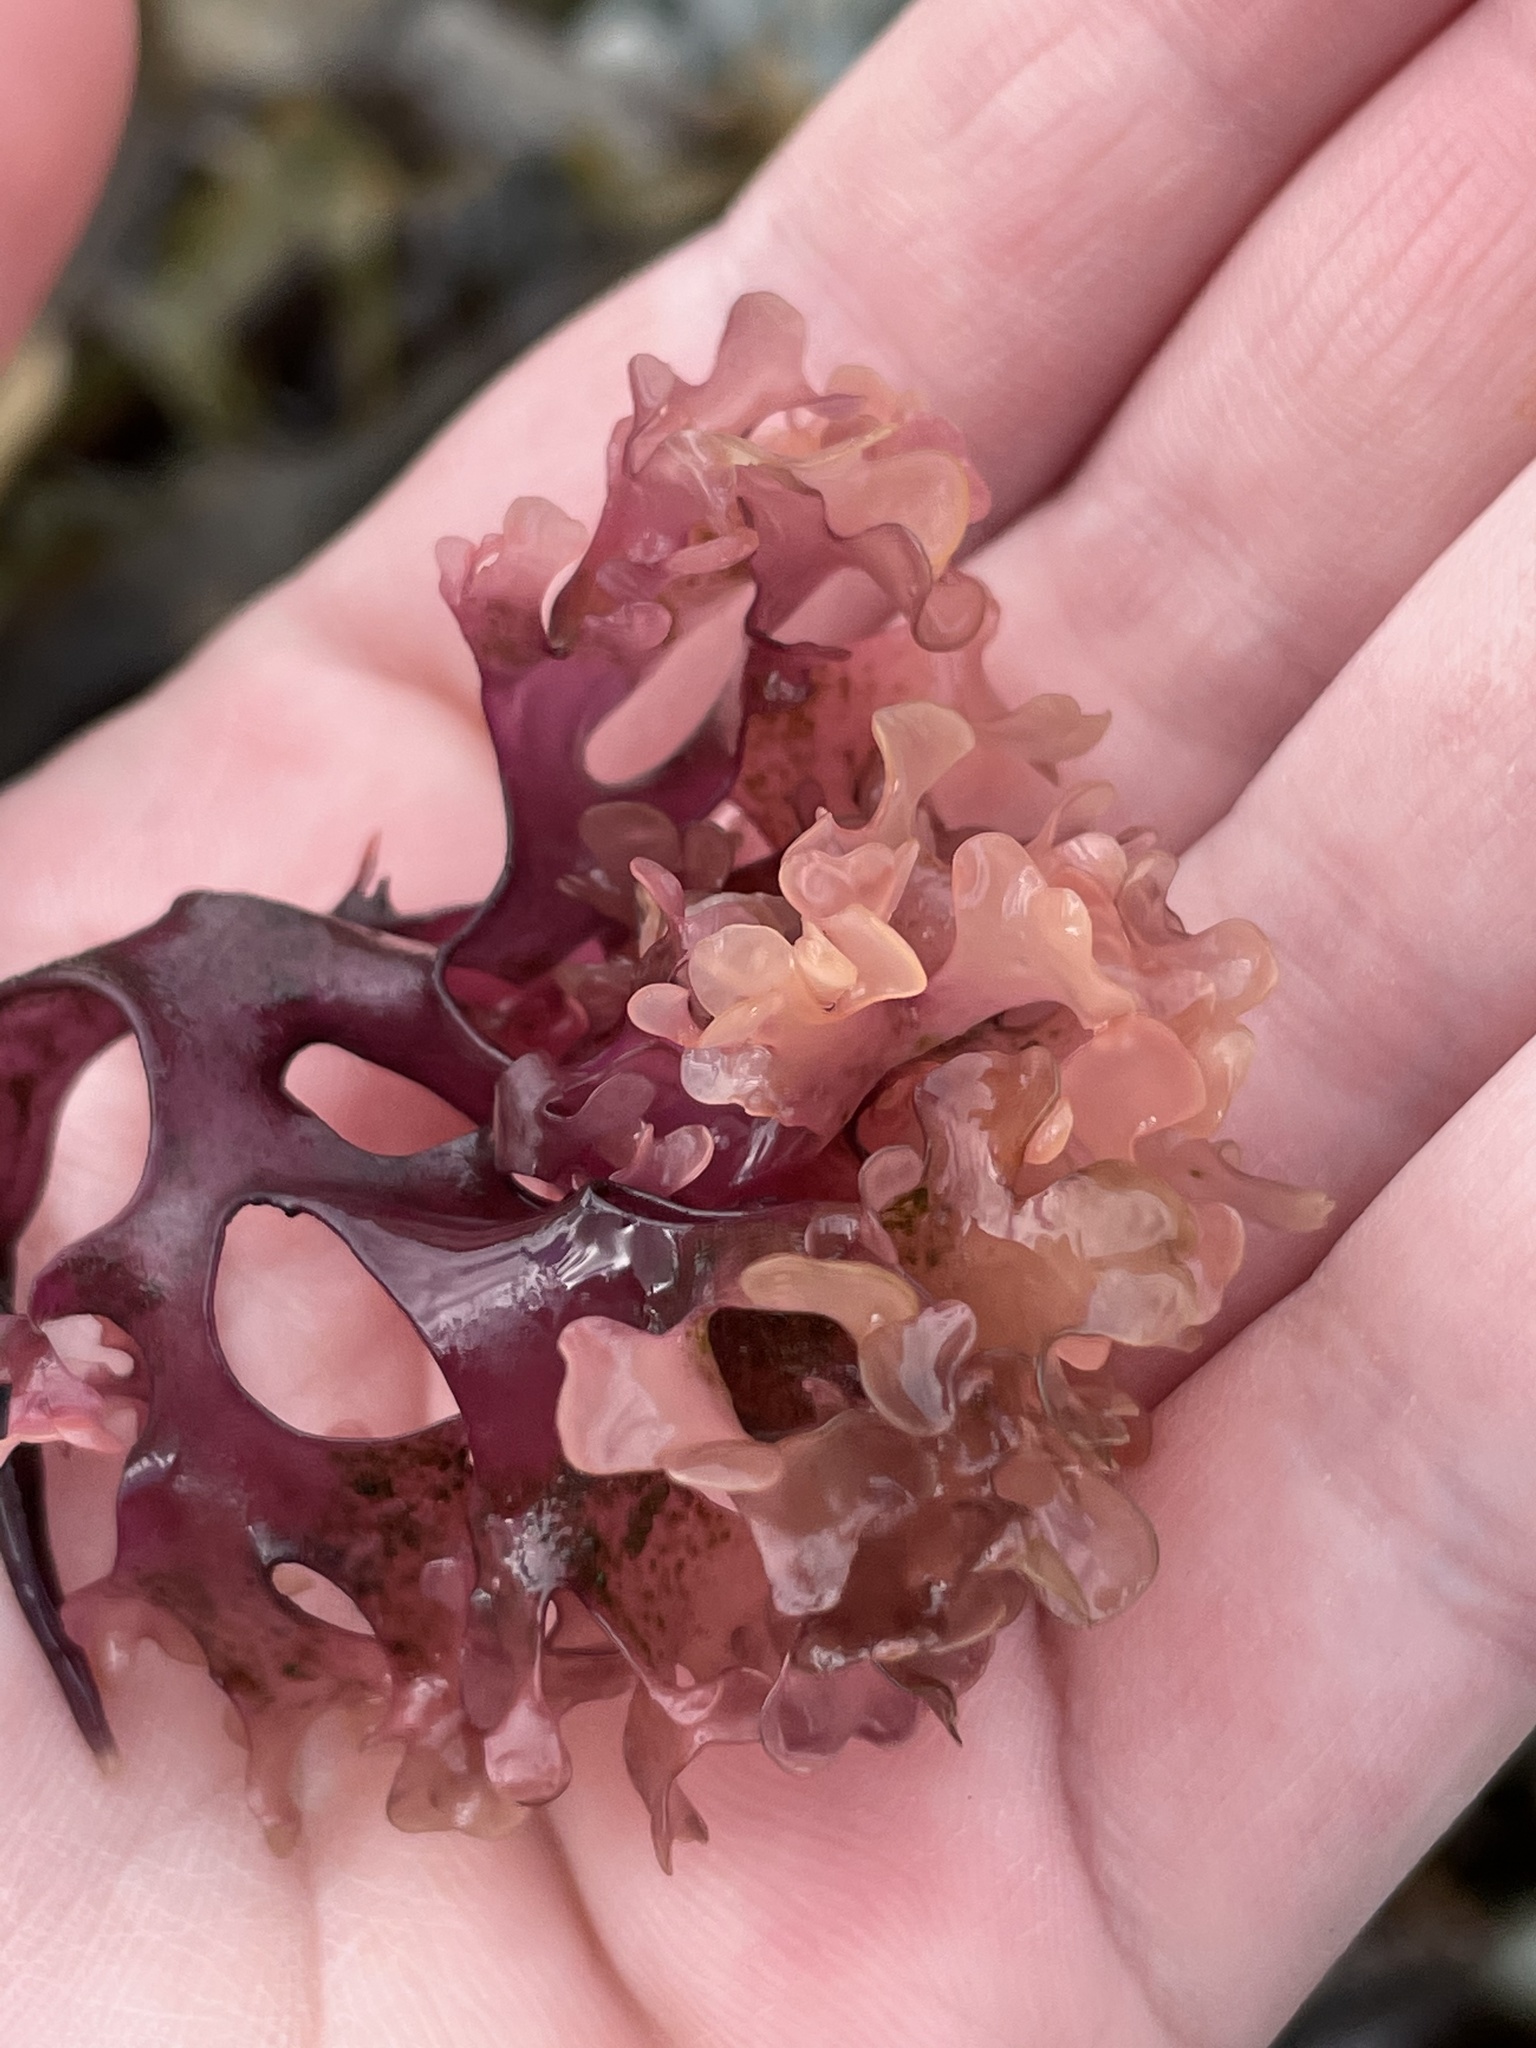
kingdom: Plantae
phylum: Rhodophyta
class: Florideophyceae
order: Gigartinales
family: Gigartinaceae
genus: Chondrus
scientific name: Chondrus crispus
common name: Carrageen
